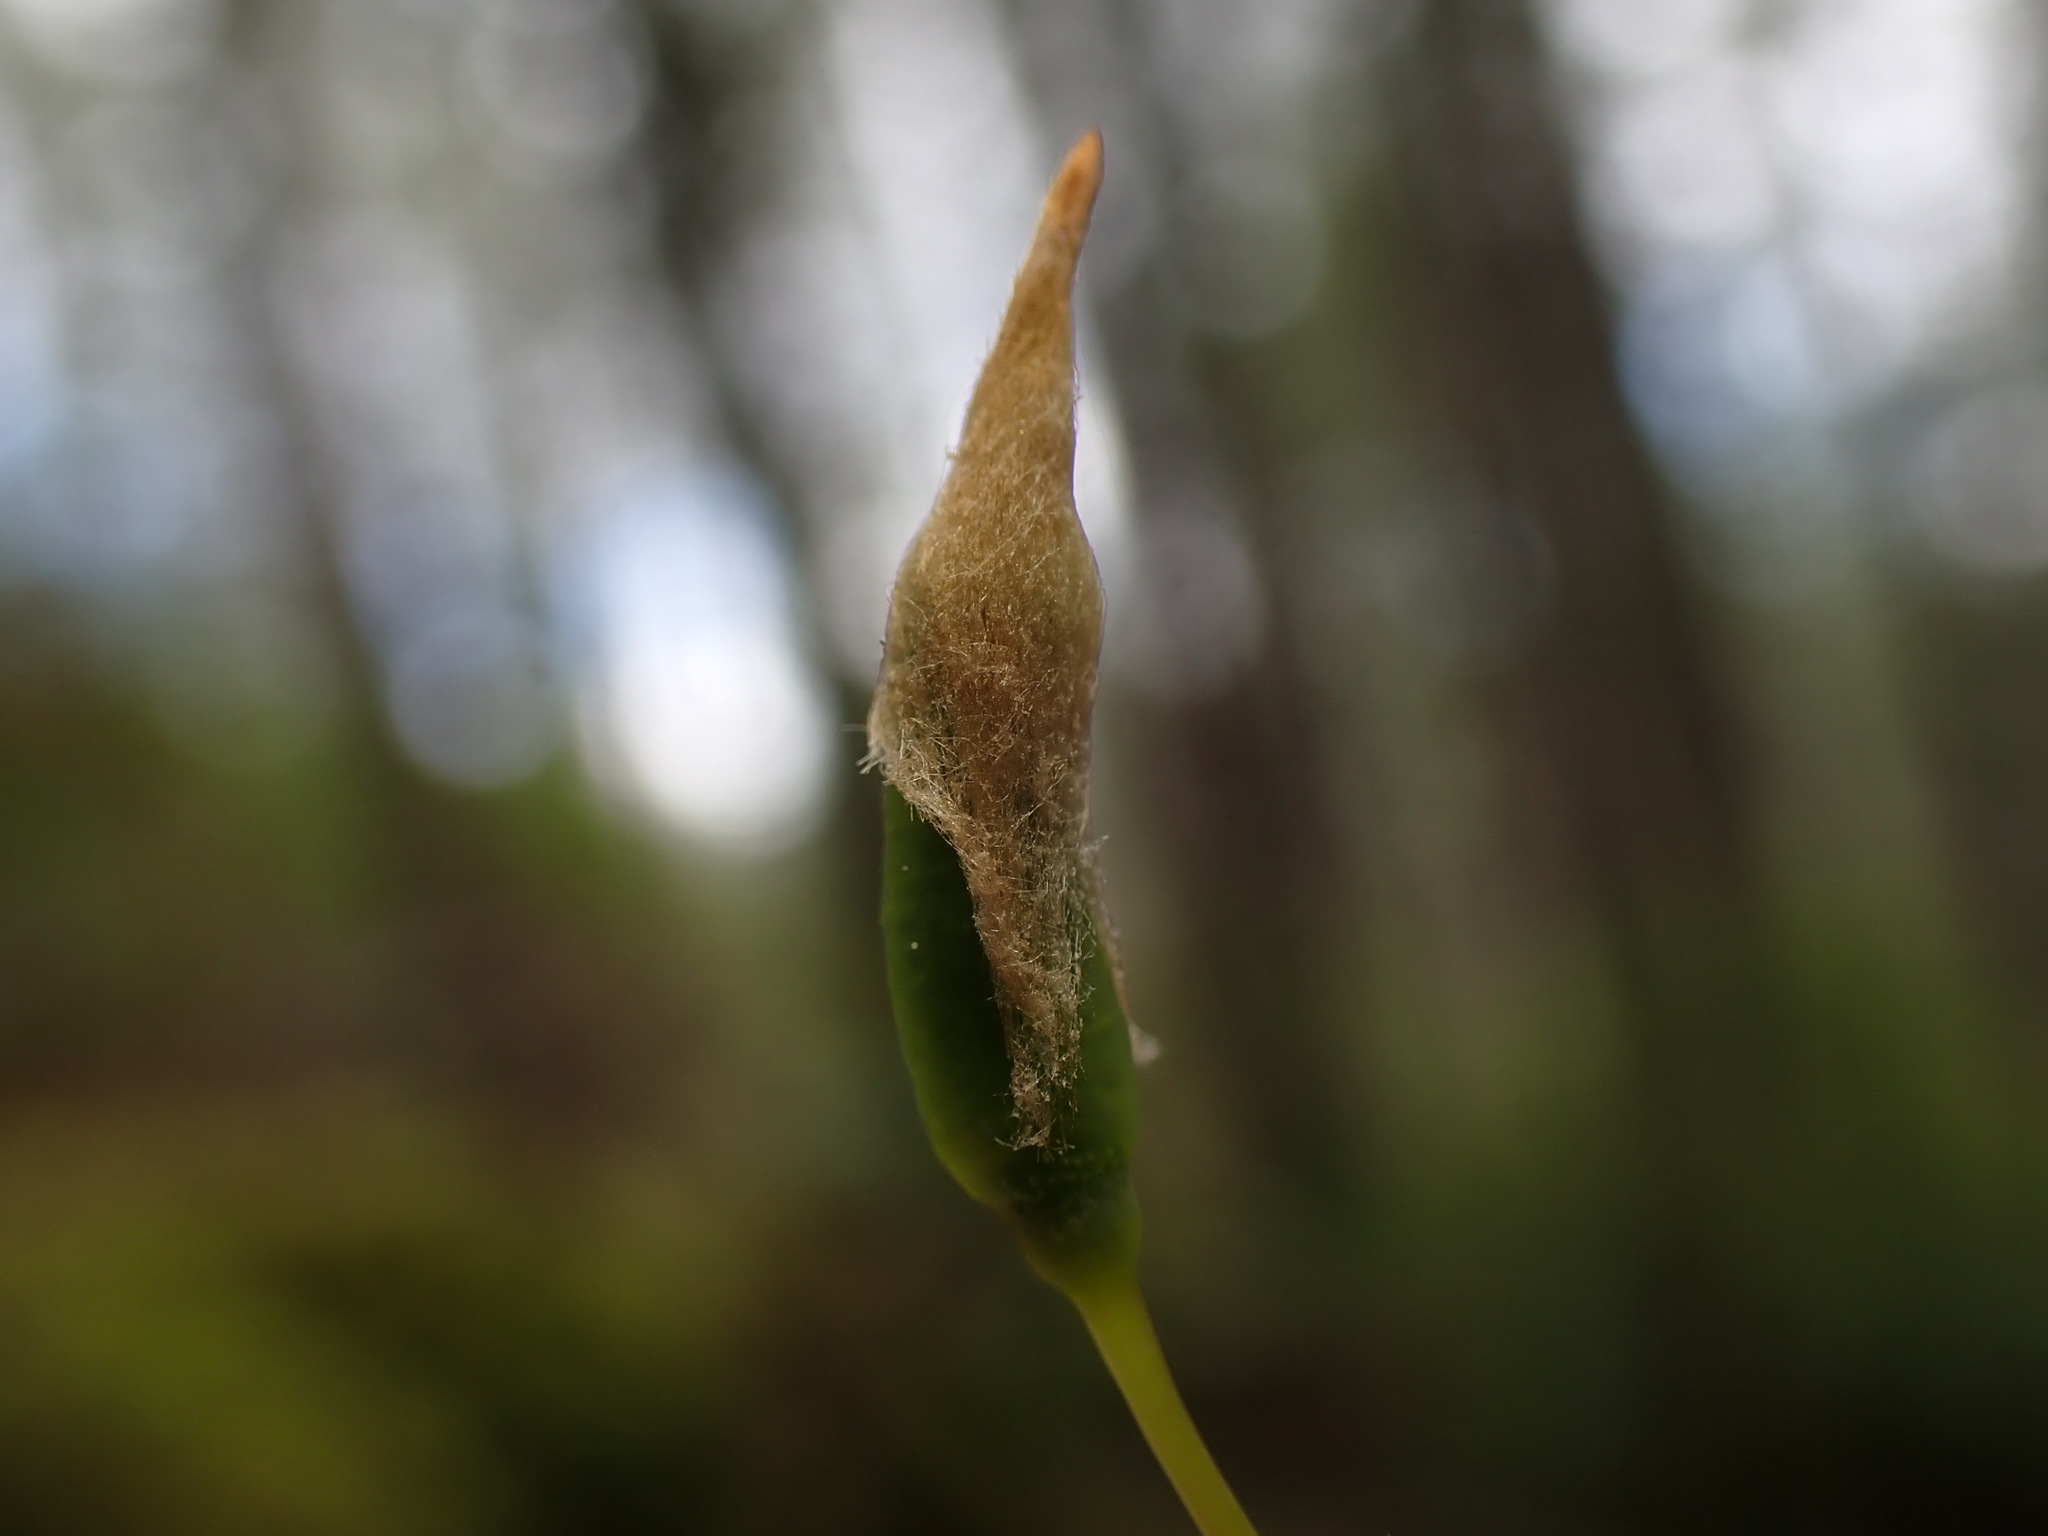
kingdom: Plantae
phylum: Bryophyta
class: Polytrichopsida
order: Polytrichales
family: Polytrichaceae
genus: Polytrichastrum
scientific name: Polytrichastrum alpinum
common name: Alpine haircap
